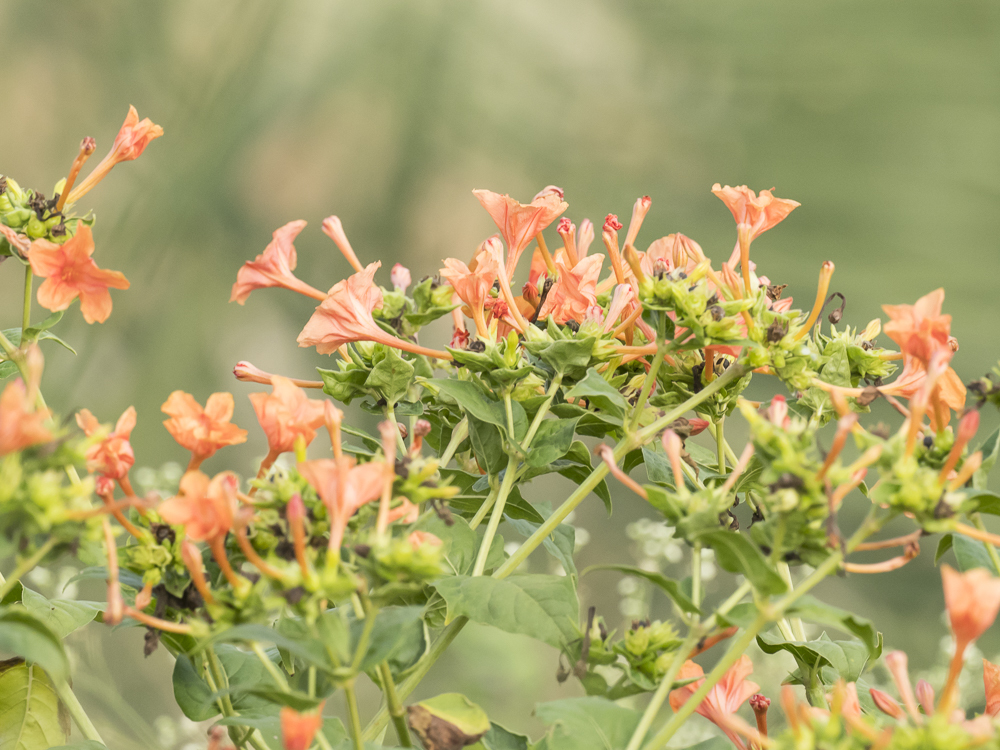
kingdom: Plantae
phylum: Tracheophyta
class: Magnoliopsida
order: Caryophyllales
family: Nyctaginaceae
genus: Mirabilis
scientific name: Mirabilis jalapa
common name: Marvel-of-peru
